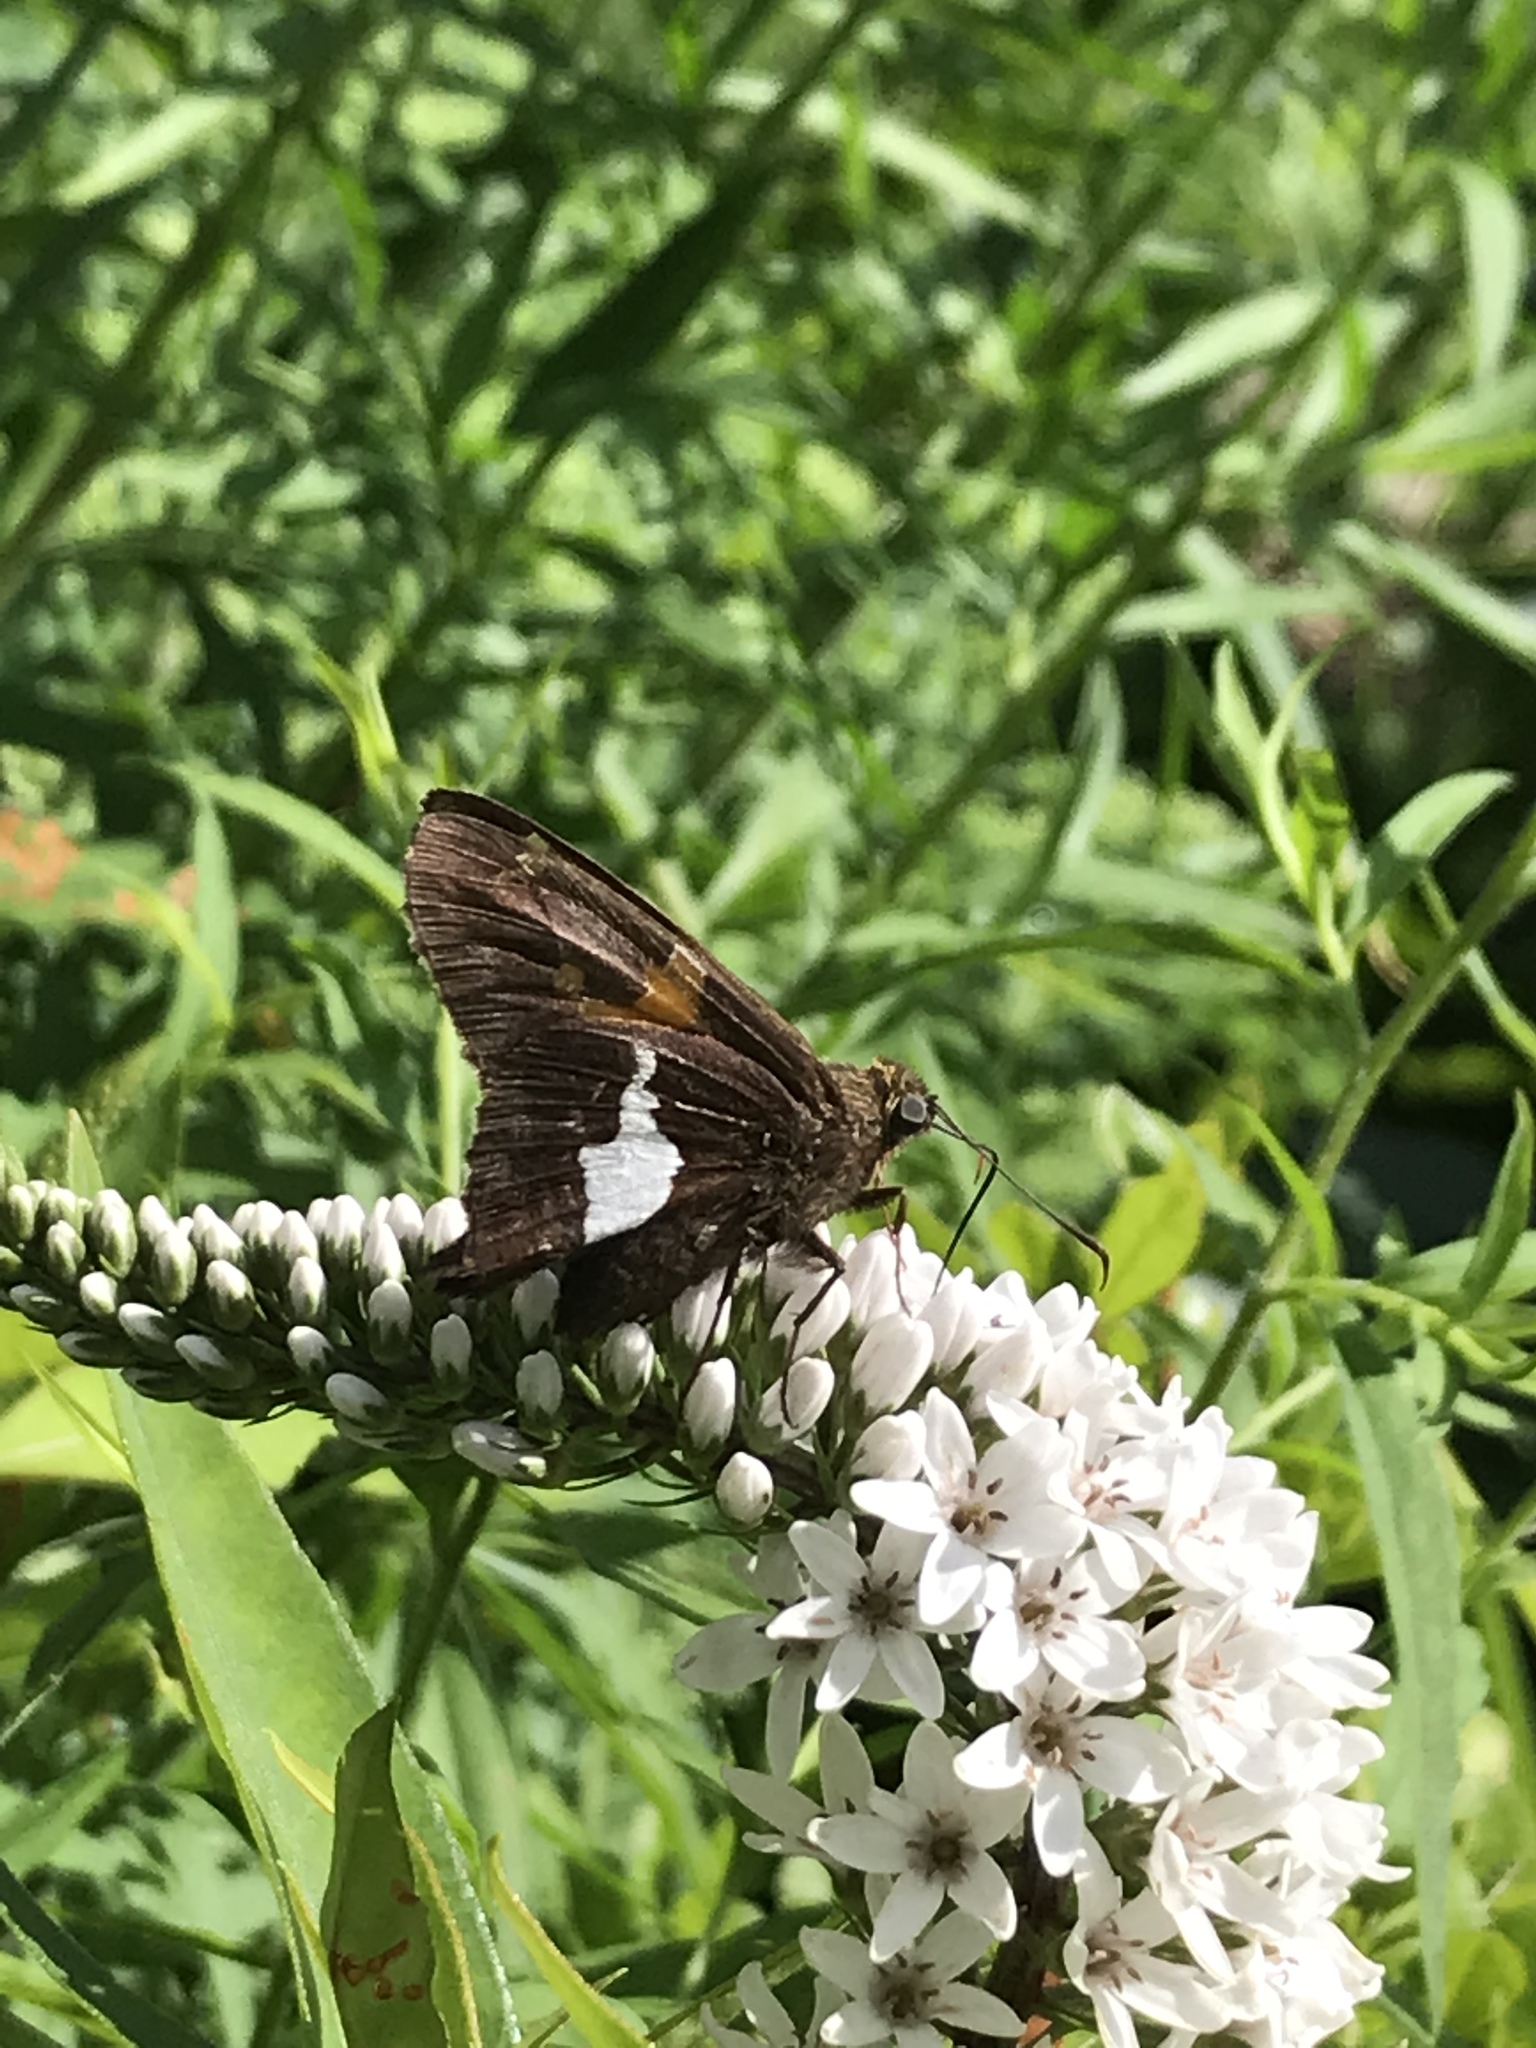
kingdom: Animalia
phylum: Arthropoda
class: Insecta
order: Lepidoptera
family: Hesperiidae
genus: Epargyreus
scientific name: Epargyreus clarus
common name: Silver-spotted skipper
